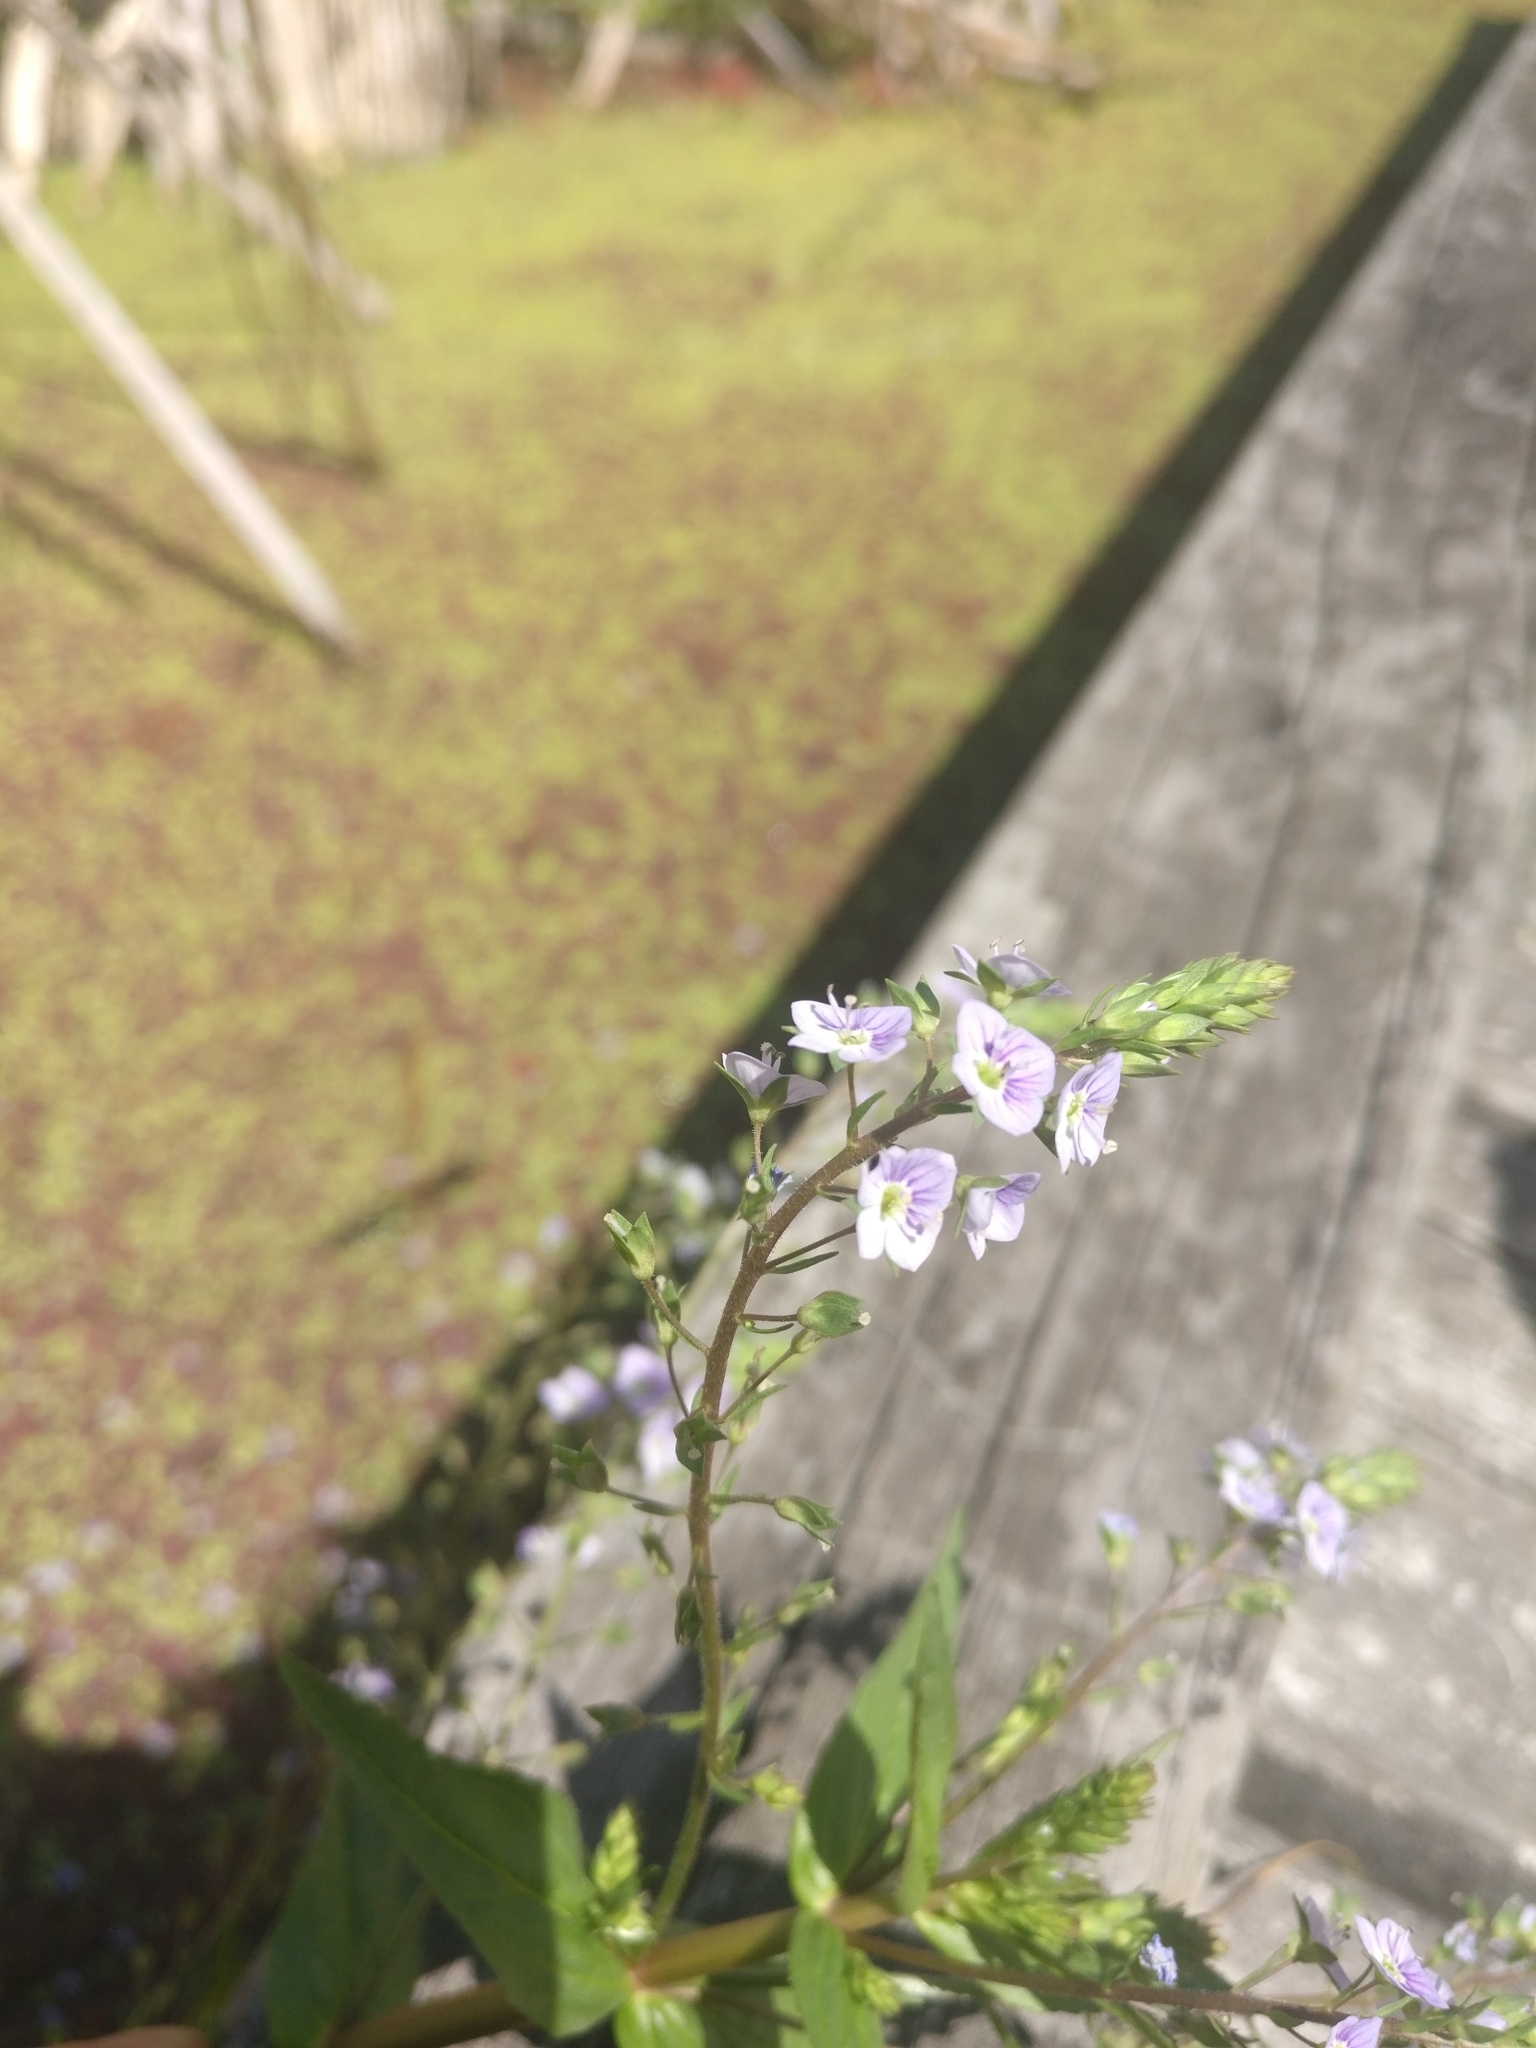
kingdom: Plantae
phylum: Tracheophyta
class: Magnoliopsida
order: Lamiales
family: Plantaginaceae
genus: Veronica
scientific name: Veronica anagallis-aquatica
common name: Water speedwell
